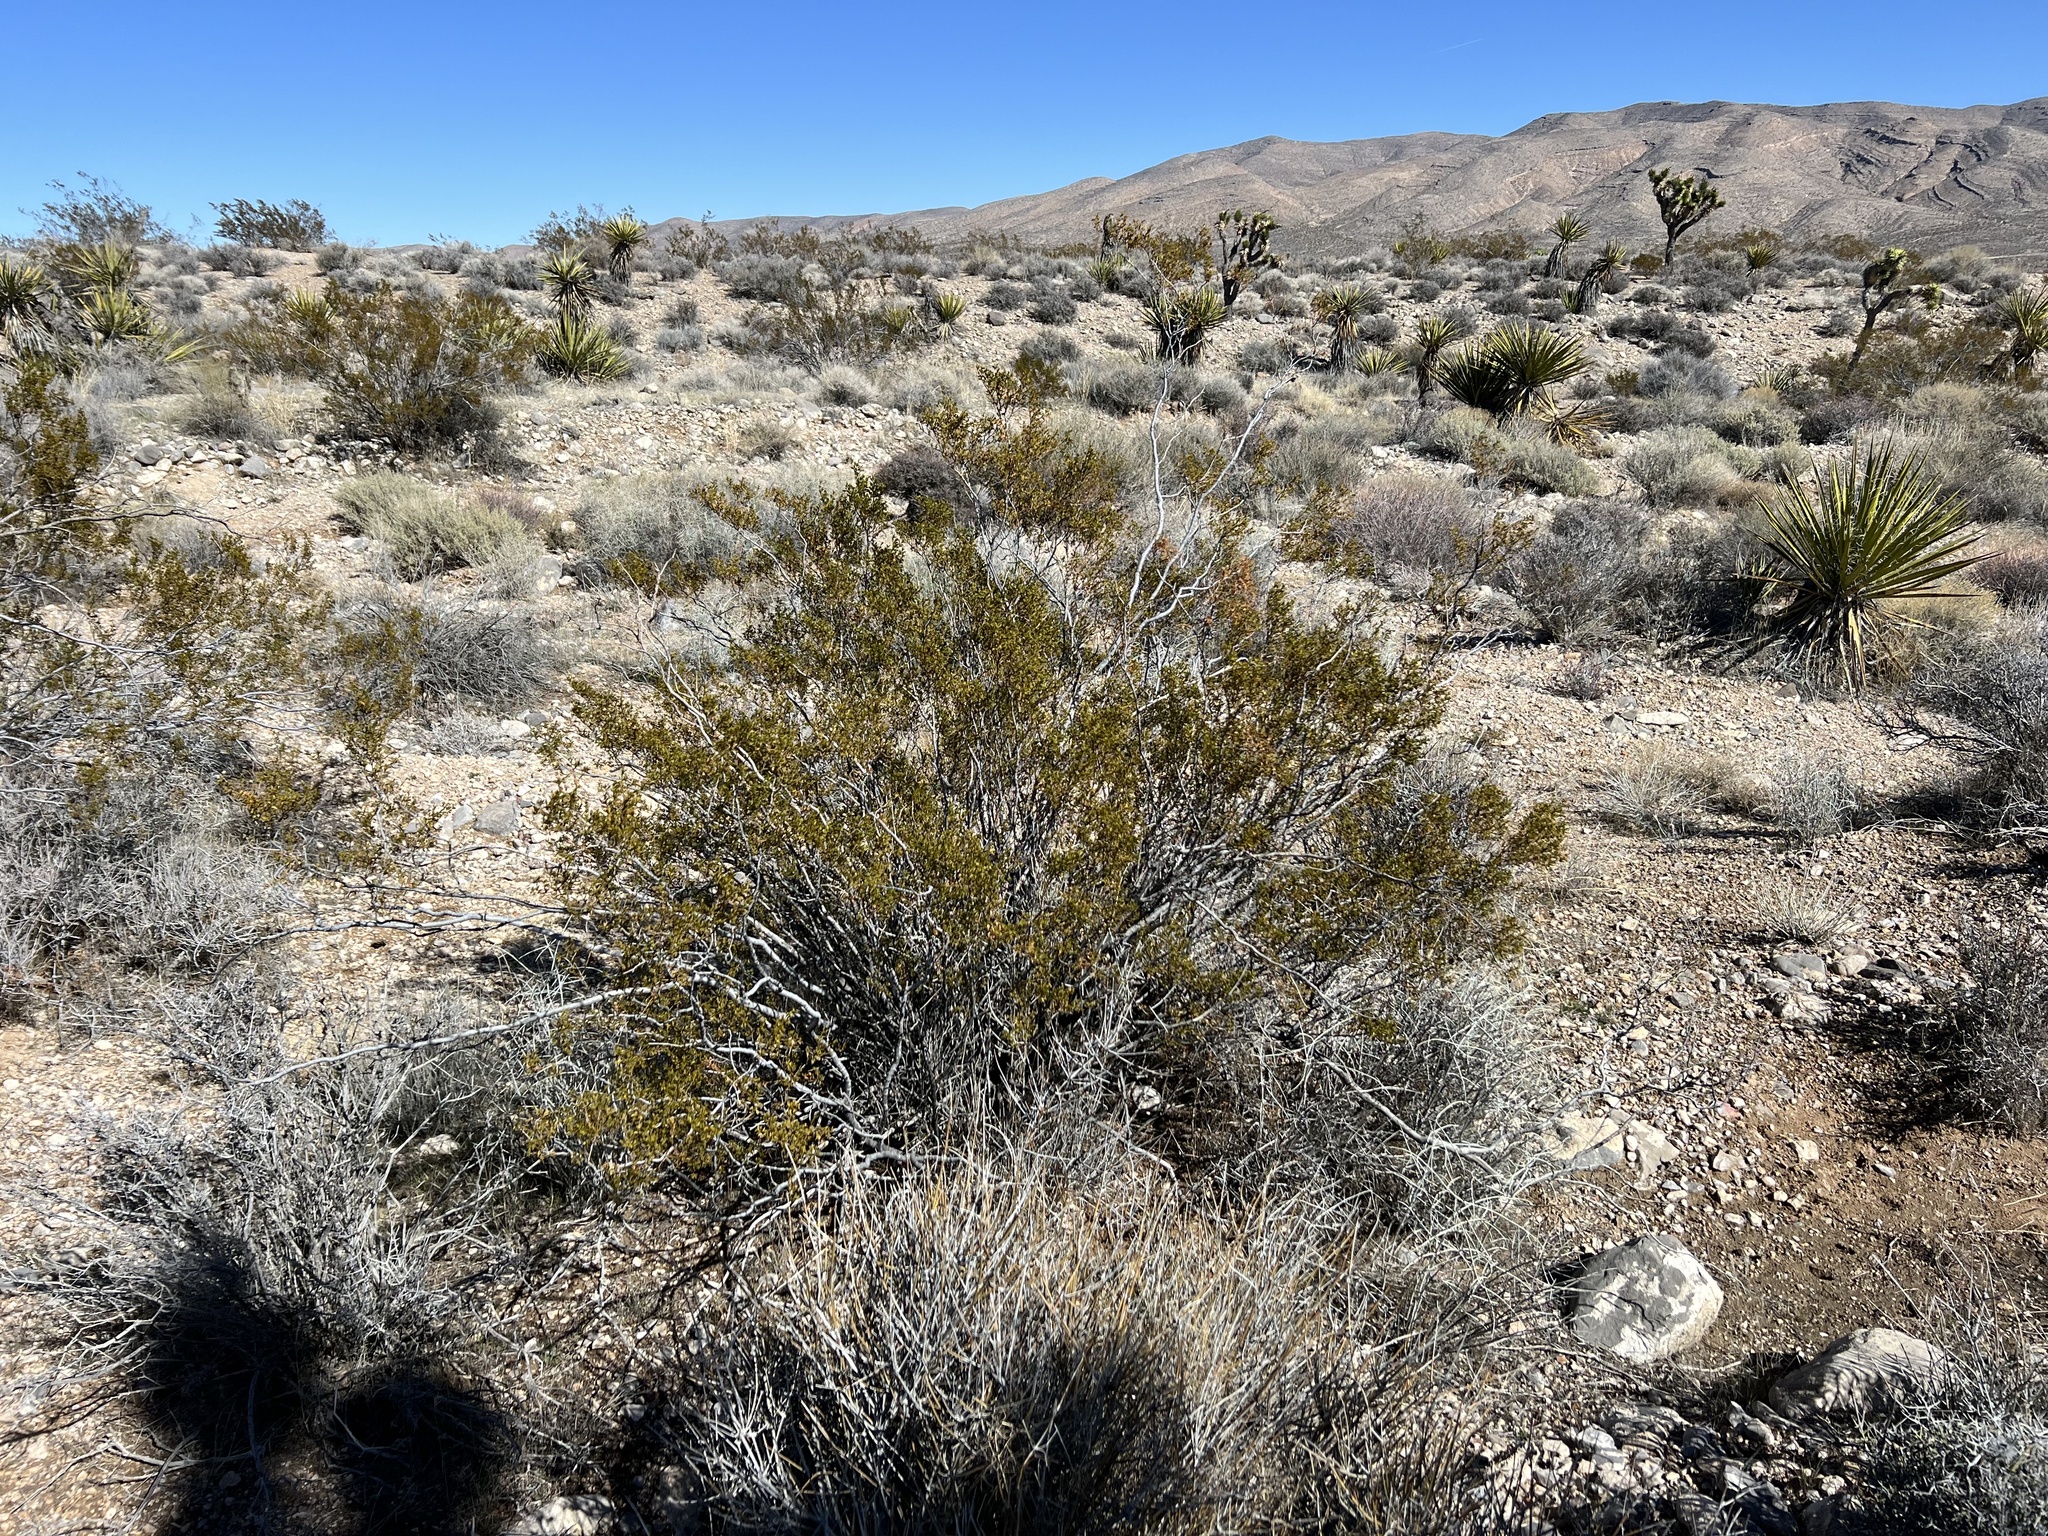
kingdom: Plantae
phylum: Tracheophyta
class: Magnoliopsida
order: Zygophyllales
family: Zygophyllaceae
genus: Larrea
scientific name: Larrea tridentata
